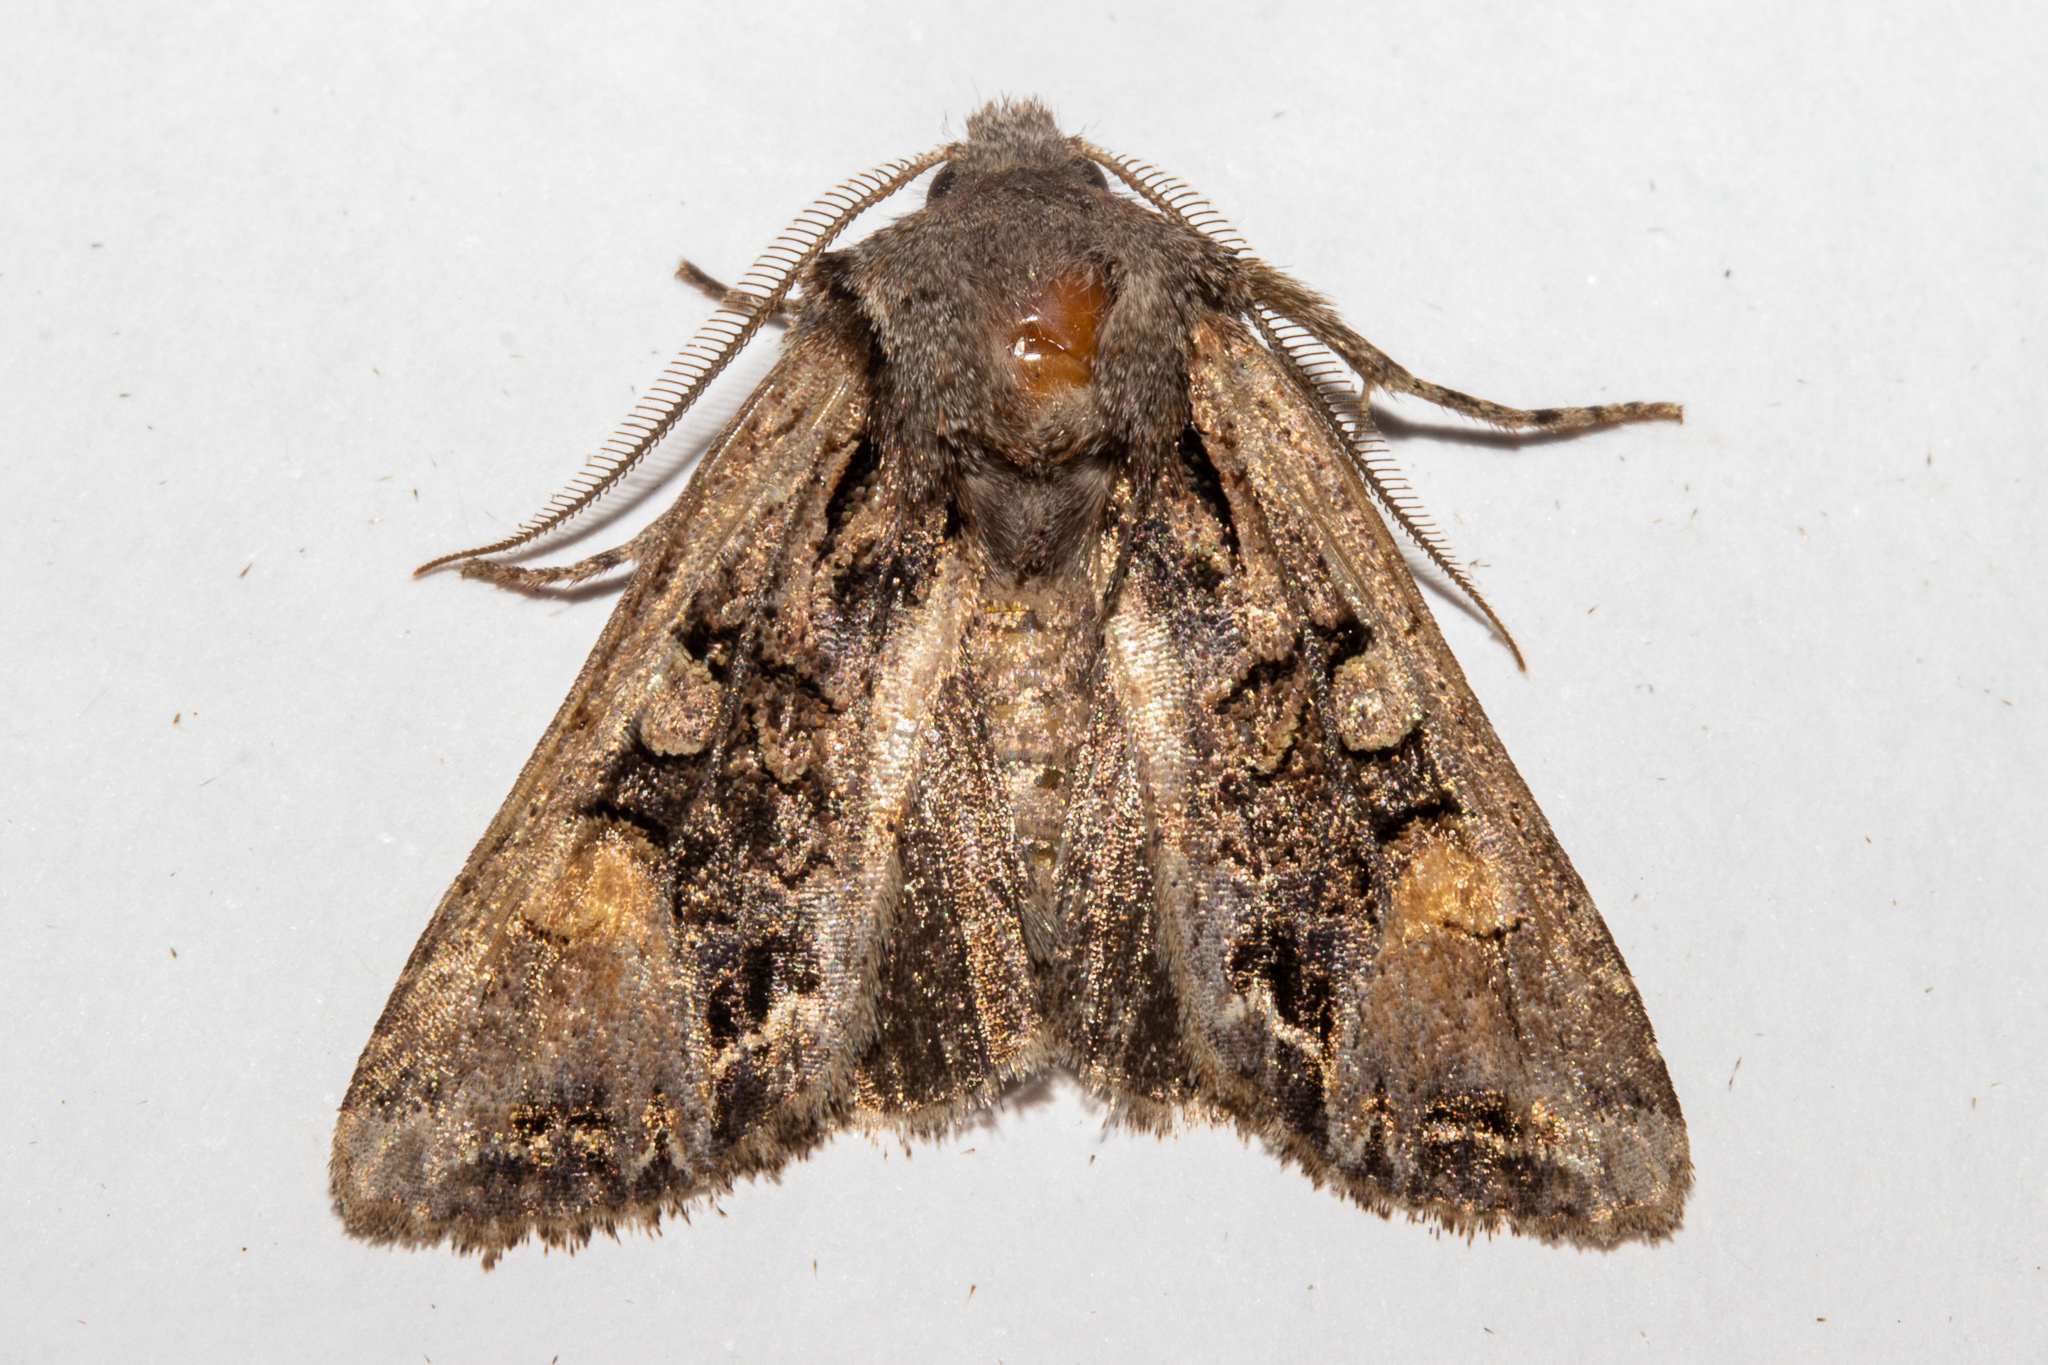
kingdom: Animalia
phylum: Arthropoda
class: Insecta
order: Lepidoptera
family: Noctuidae
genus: Ichneutica
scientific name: Ichneutica
